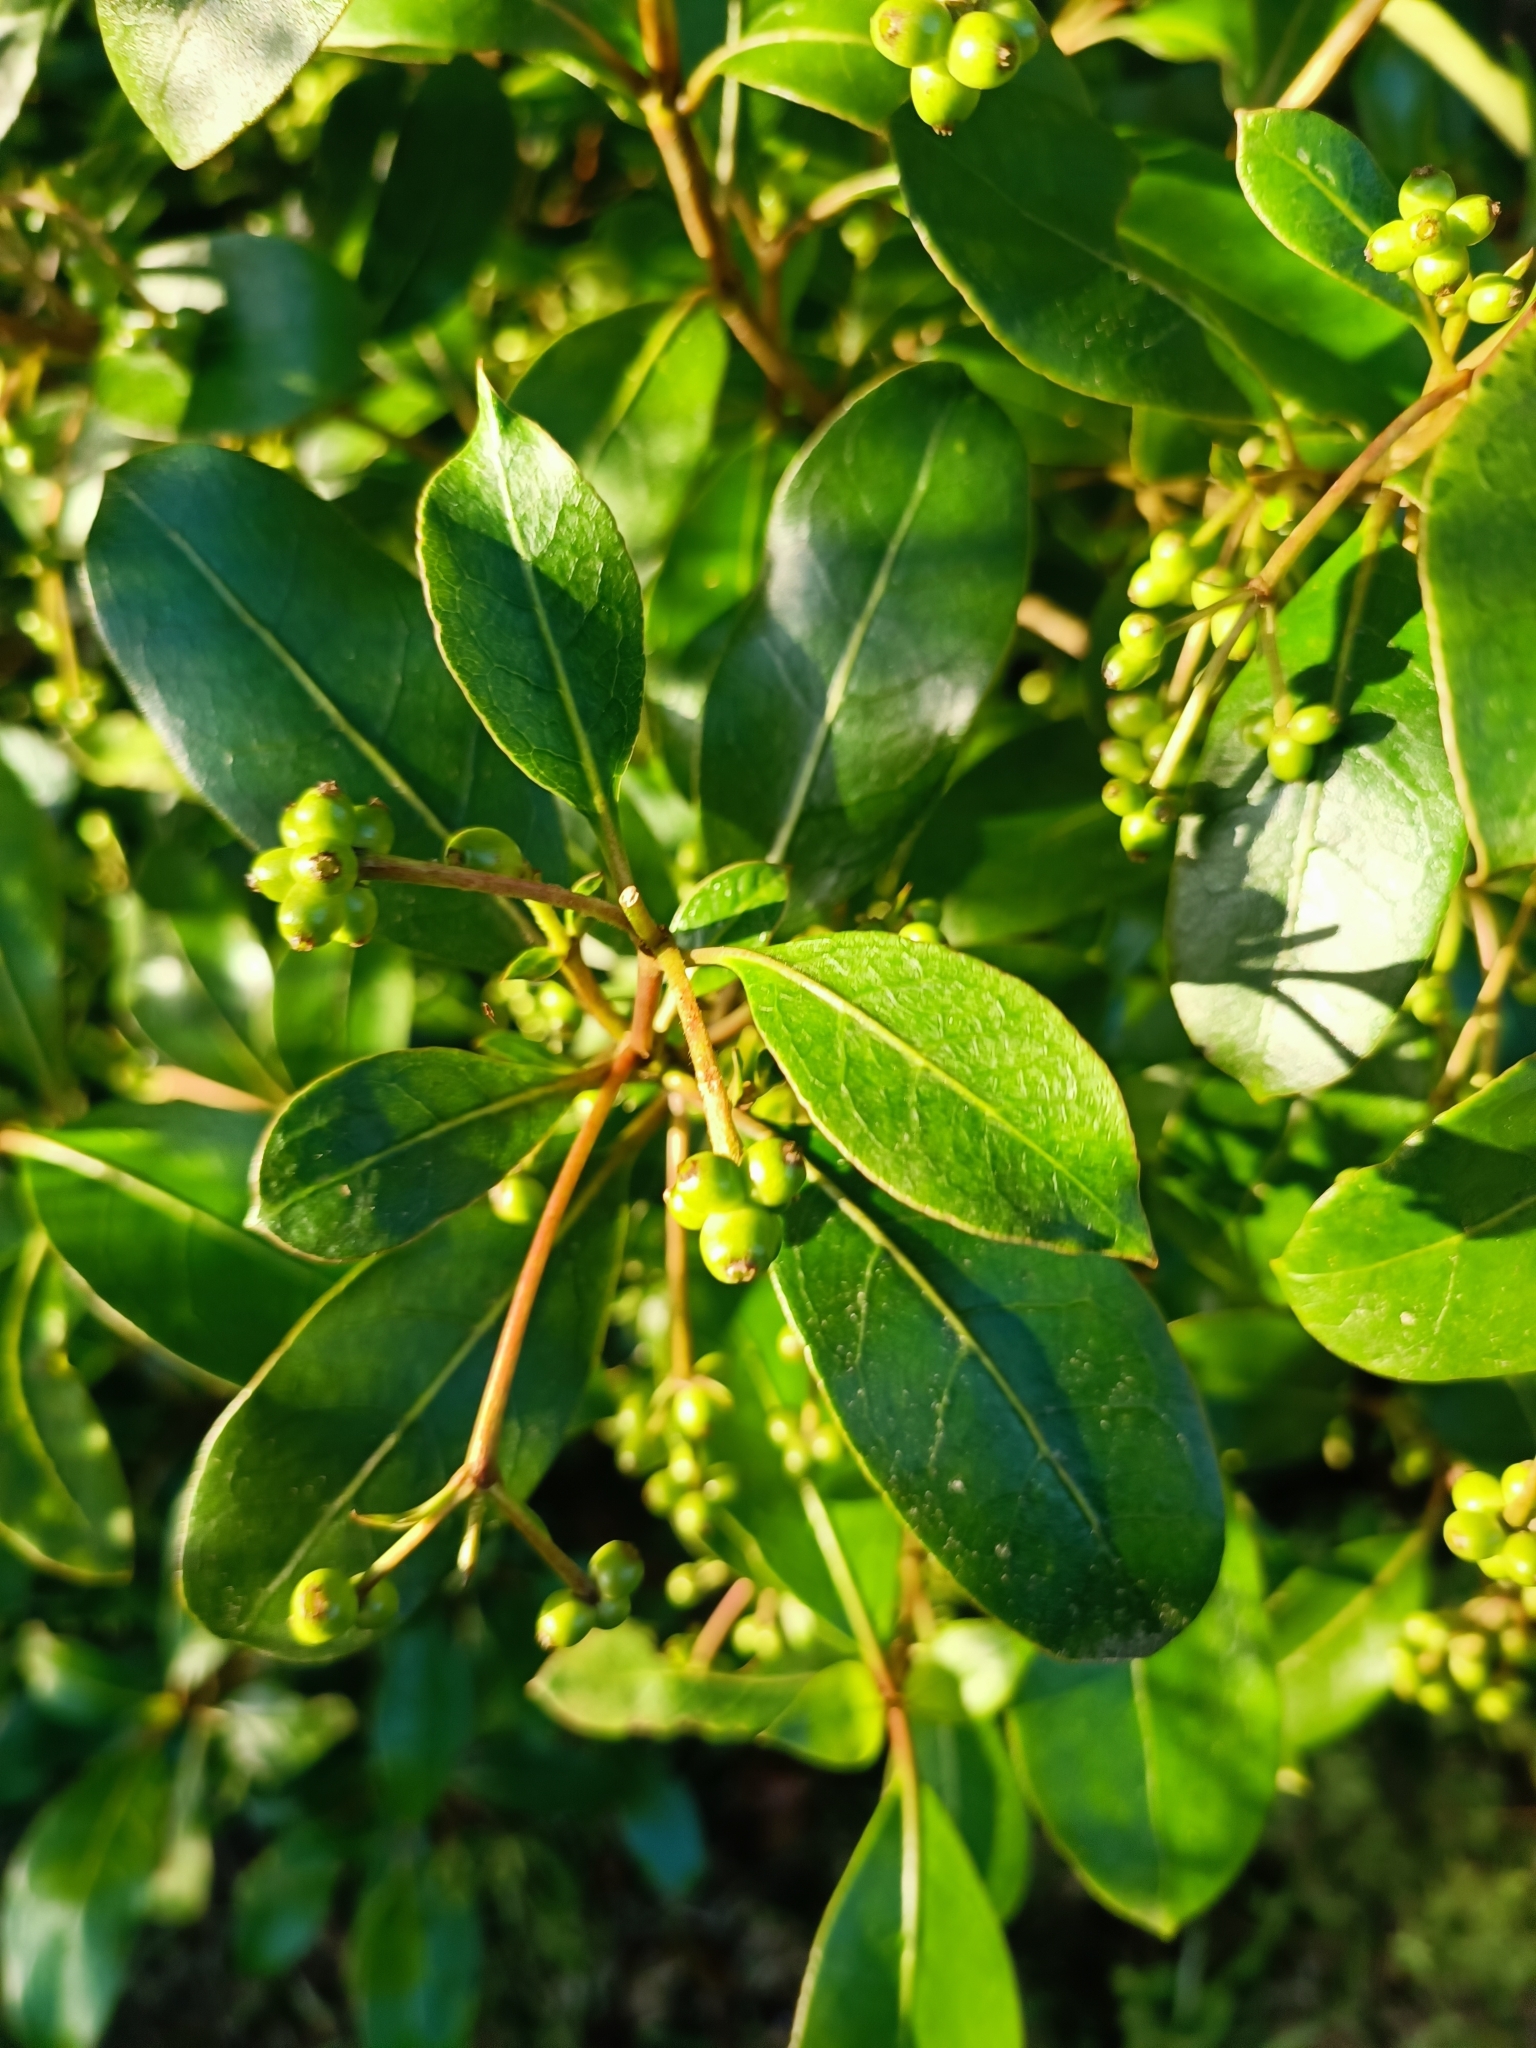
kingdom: Plantae
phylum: Tracheophyta
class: Magnoliopsida
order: Gentianales
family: Rubiaceae
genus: Coprosma
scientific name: Coprosma lucida
